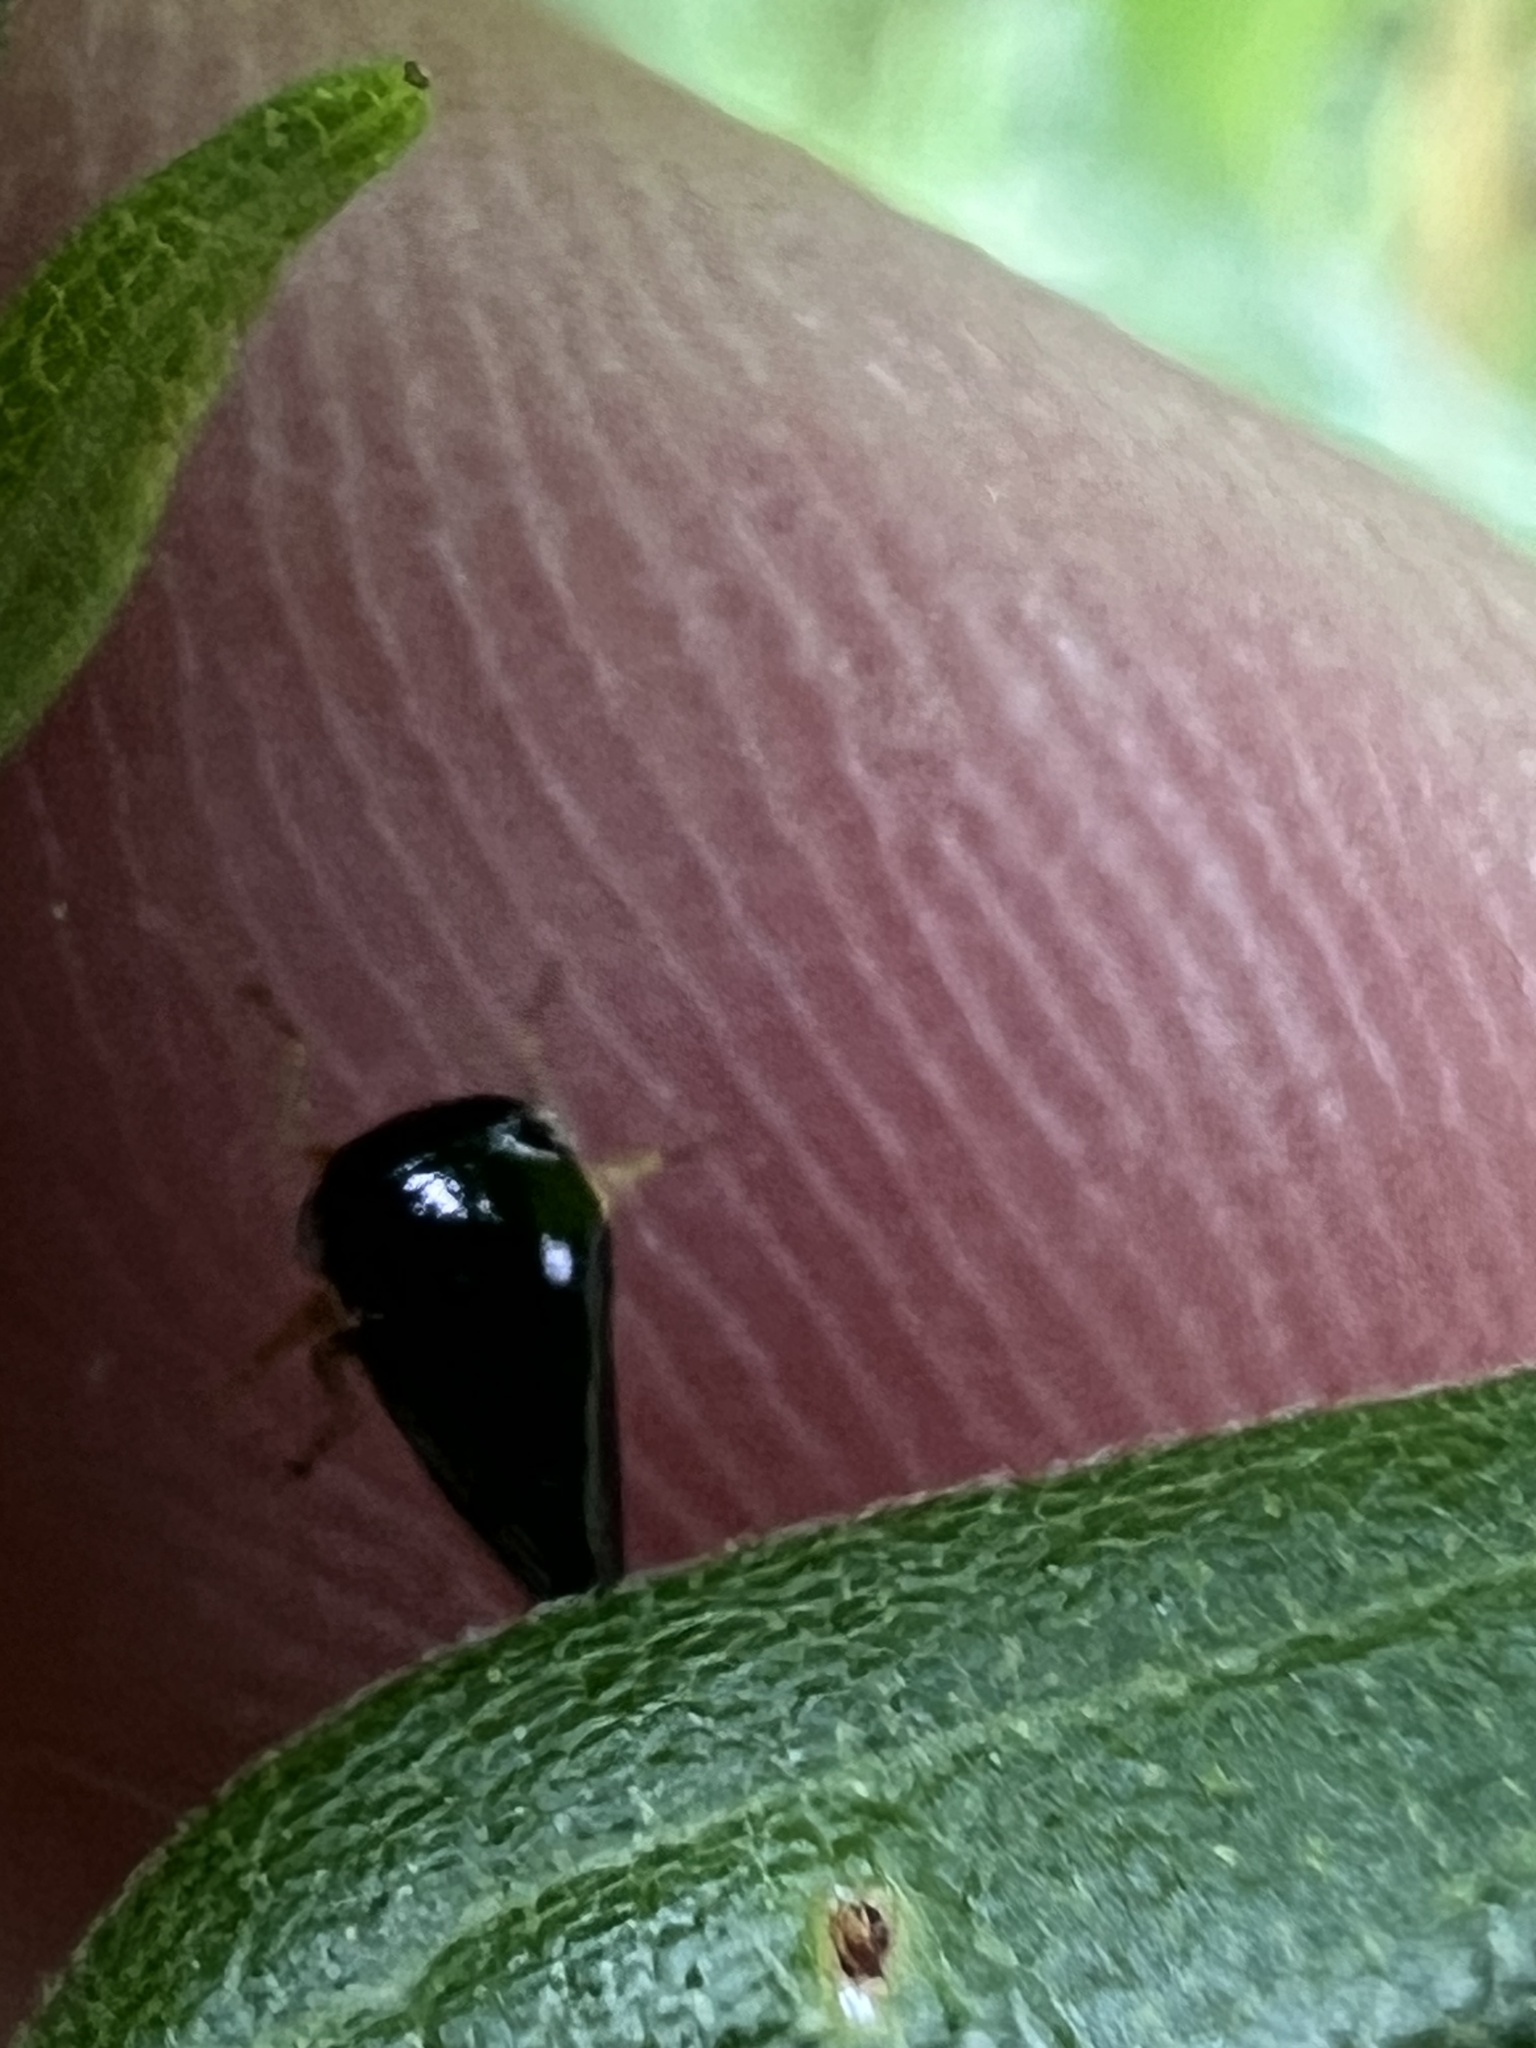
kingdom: Animalia
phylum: Arthropoda
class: Insecta
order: Hemiptera
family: Membracidae
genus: Acutalis
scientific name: Acutalis tartarea
